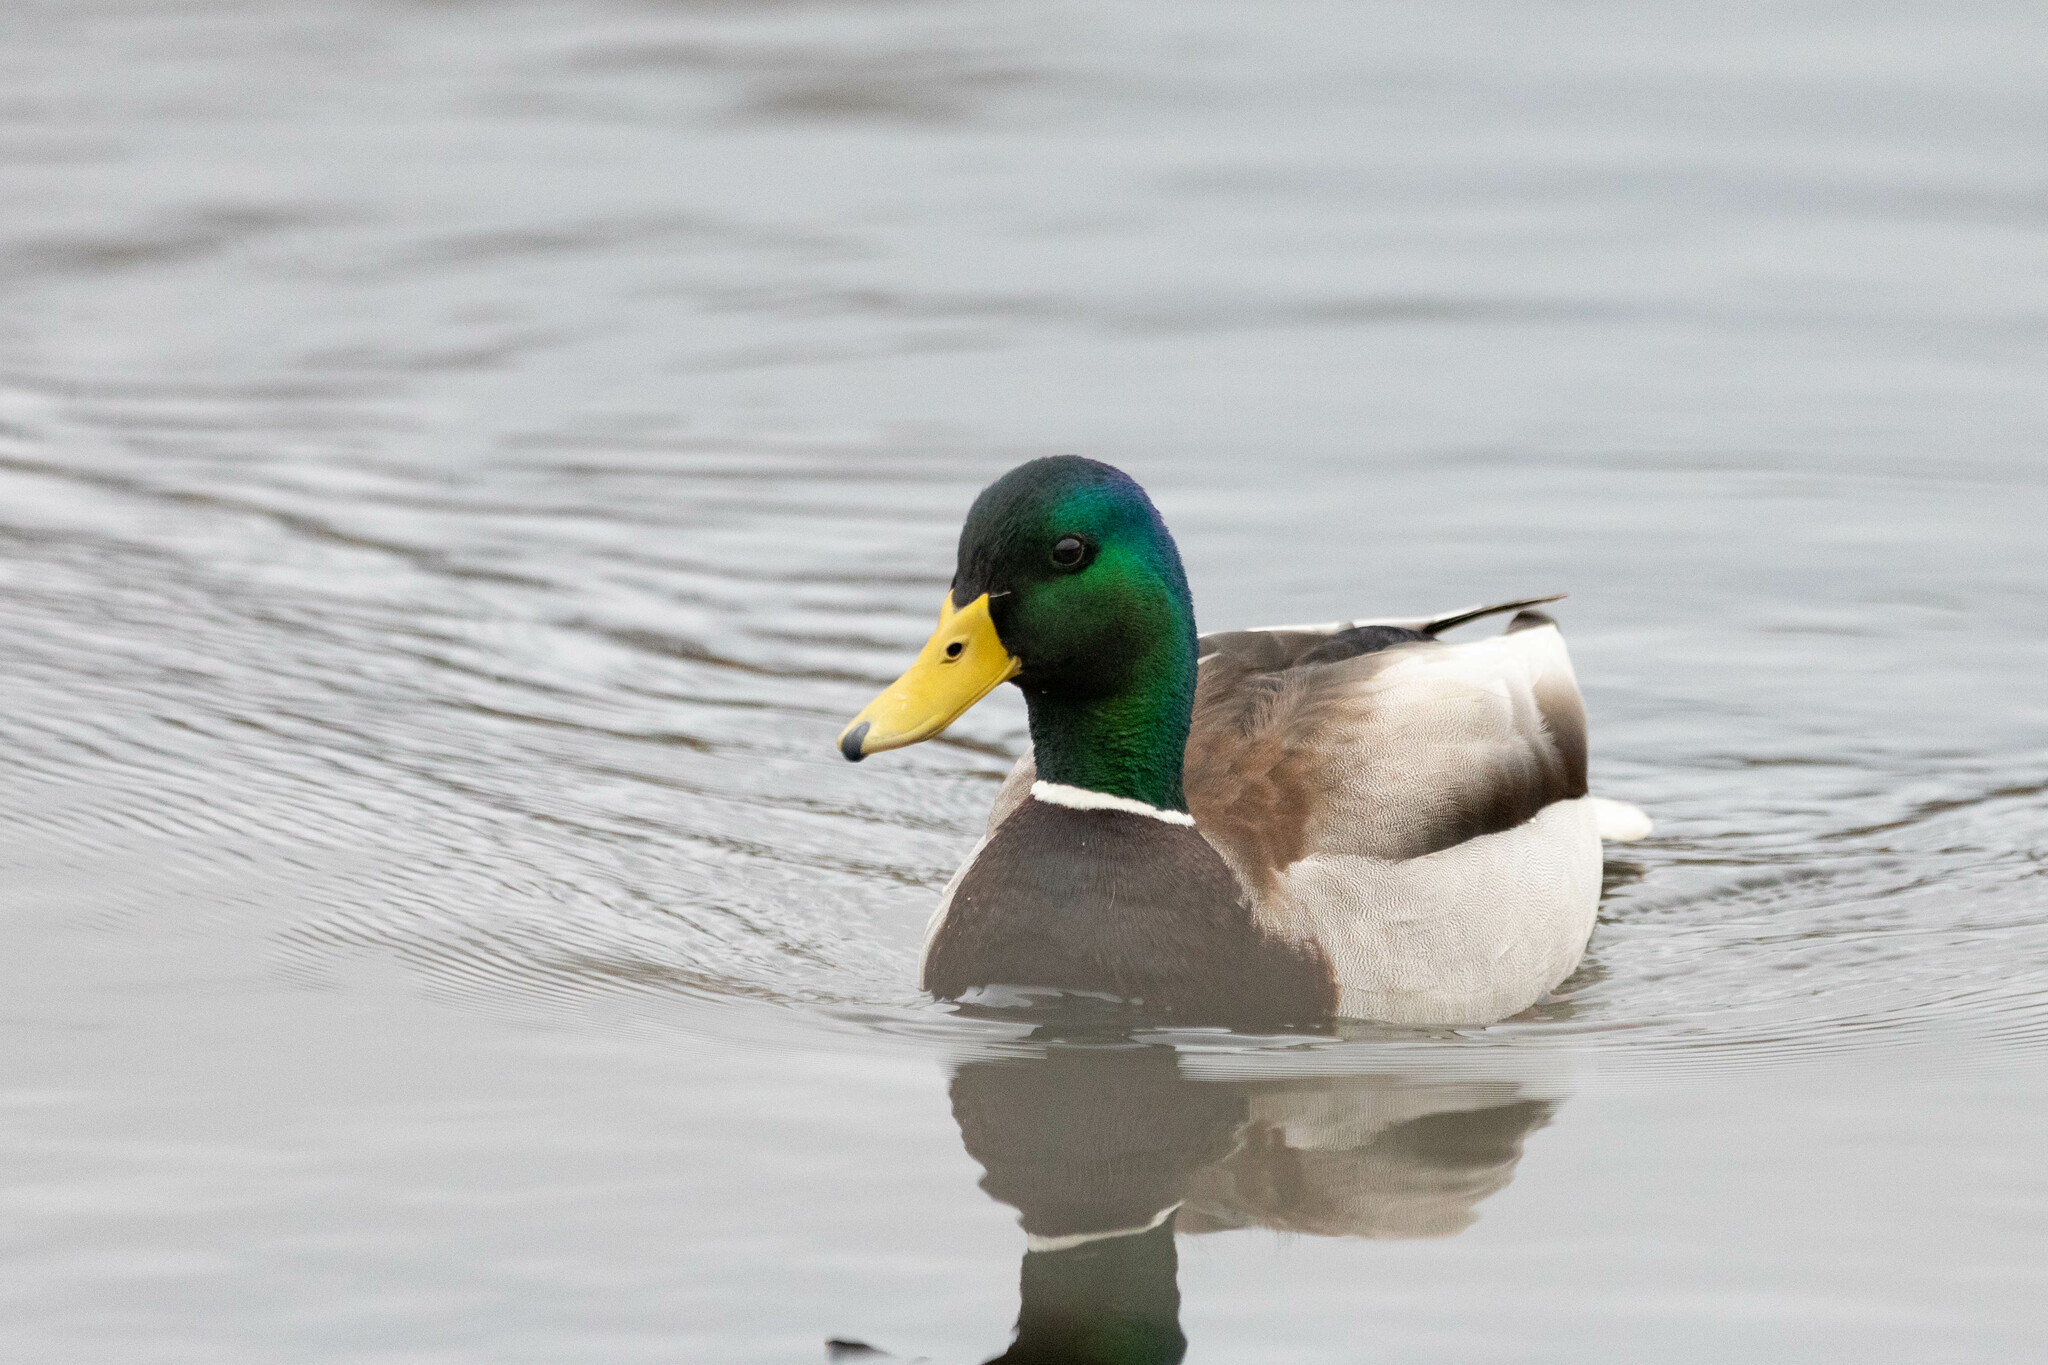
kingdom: Animalia
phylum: Chordata
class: Aves
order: Anseriformes
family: Anatidae
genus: Anas
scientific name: Anas platyrhynchos
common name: Mallard
